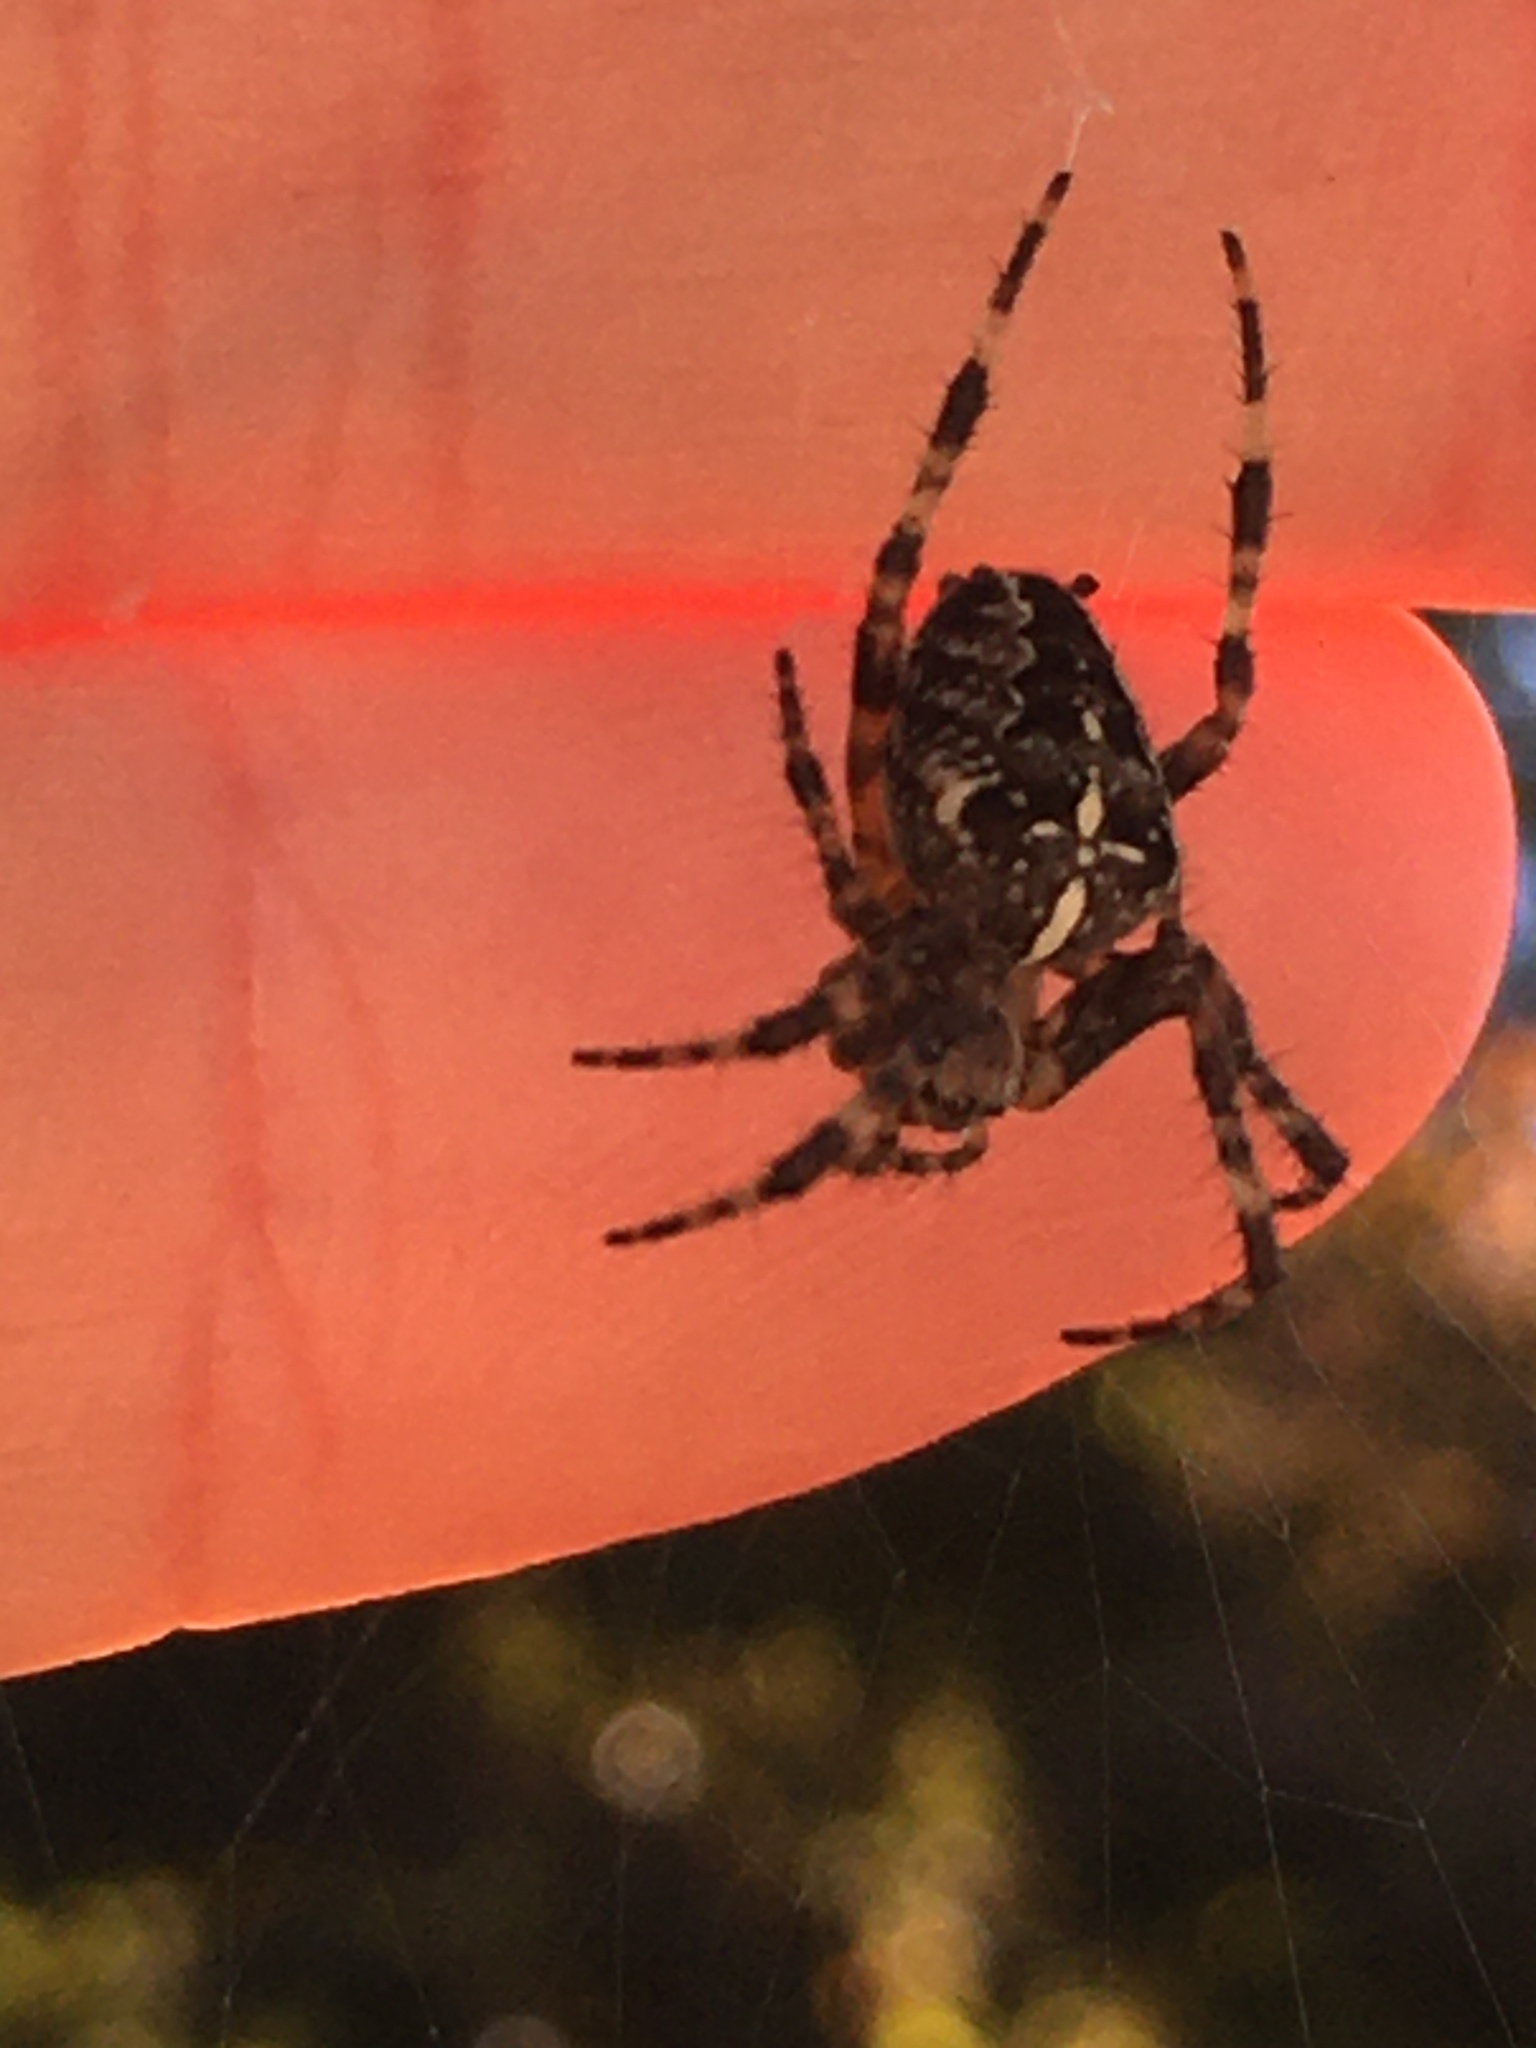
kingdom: Animalia
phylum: Arthropoda
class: Arachnida
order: Araneae
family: Araneidae
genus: Araneus
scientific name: Araneus diadematus
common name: Cross orbweaver
